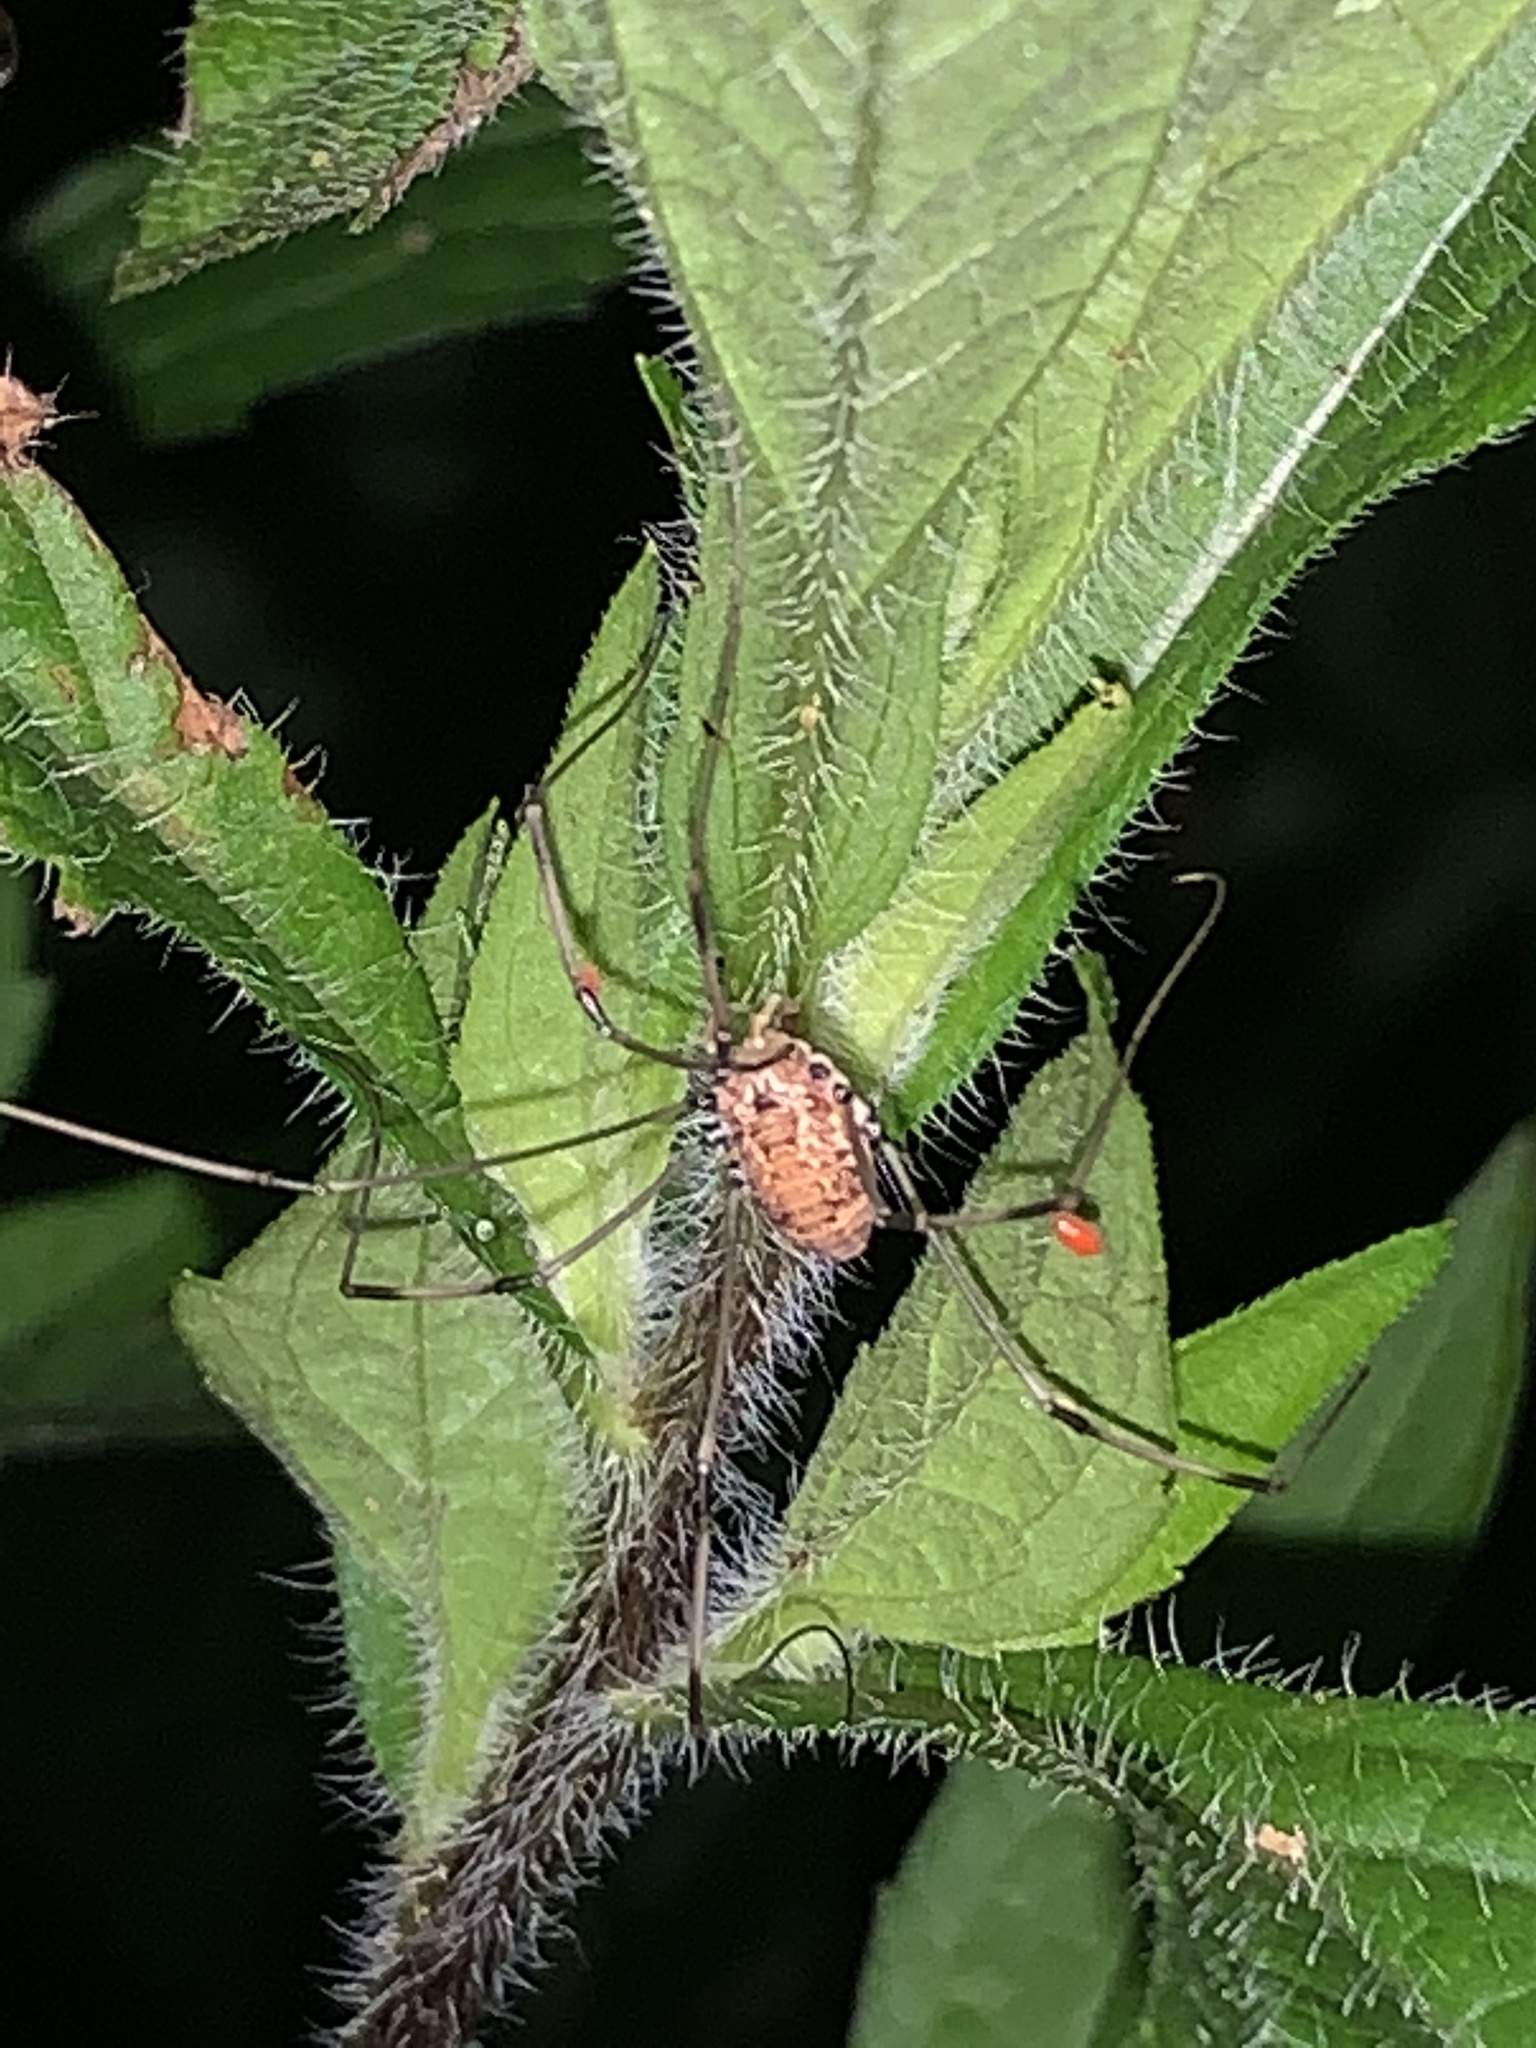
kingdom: Animalia
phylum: Arthropoda
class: Arachnida
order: Opiliones
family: Sclerosomatidae
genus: Leiobunum
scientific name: Leiobunum vittatum
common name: Eastern harvestman
